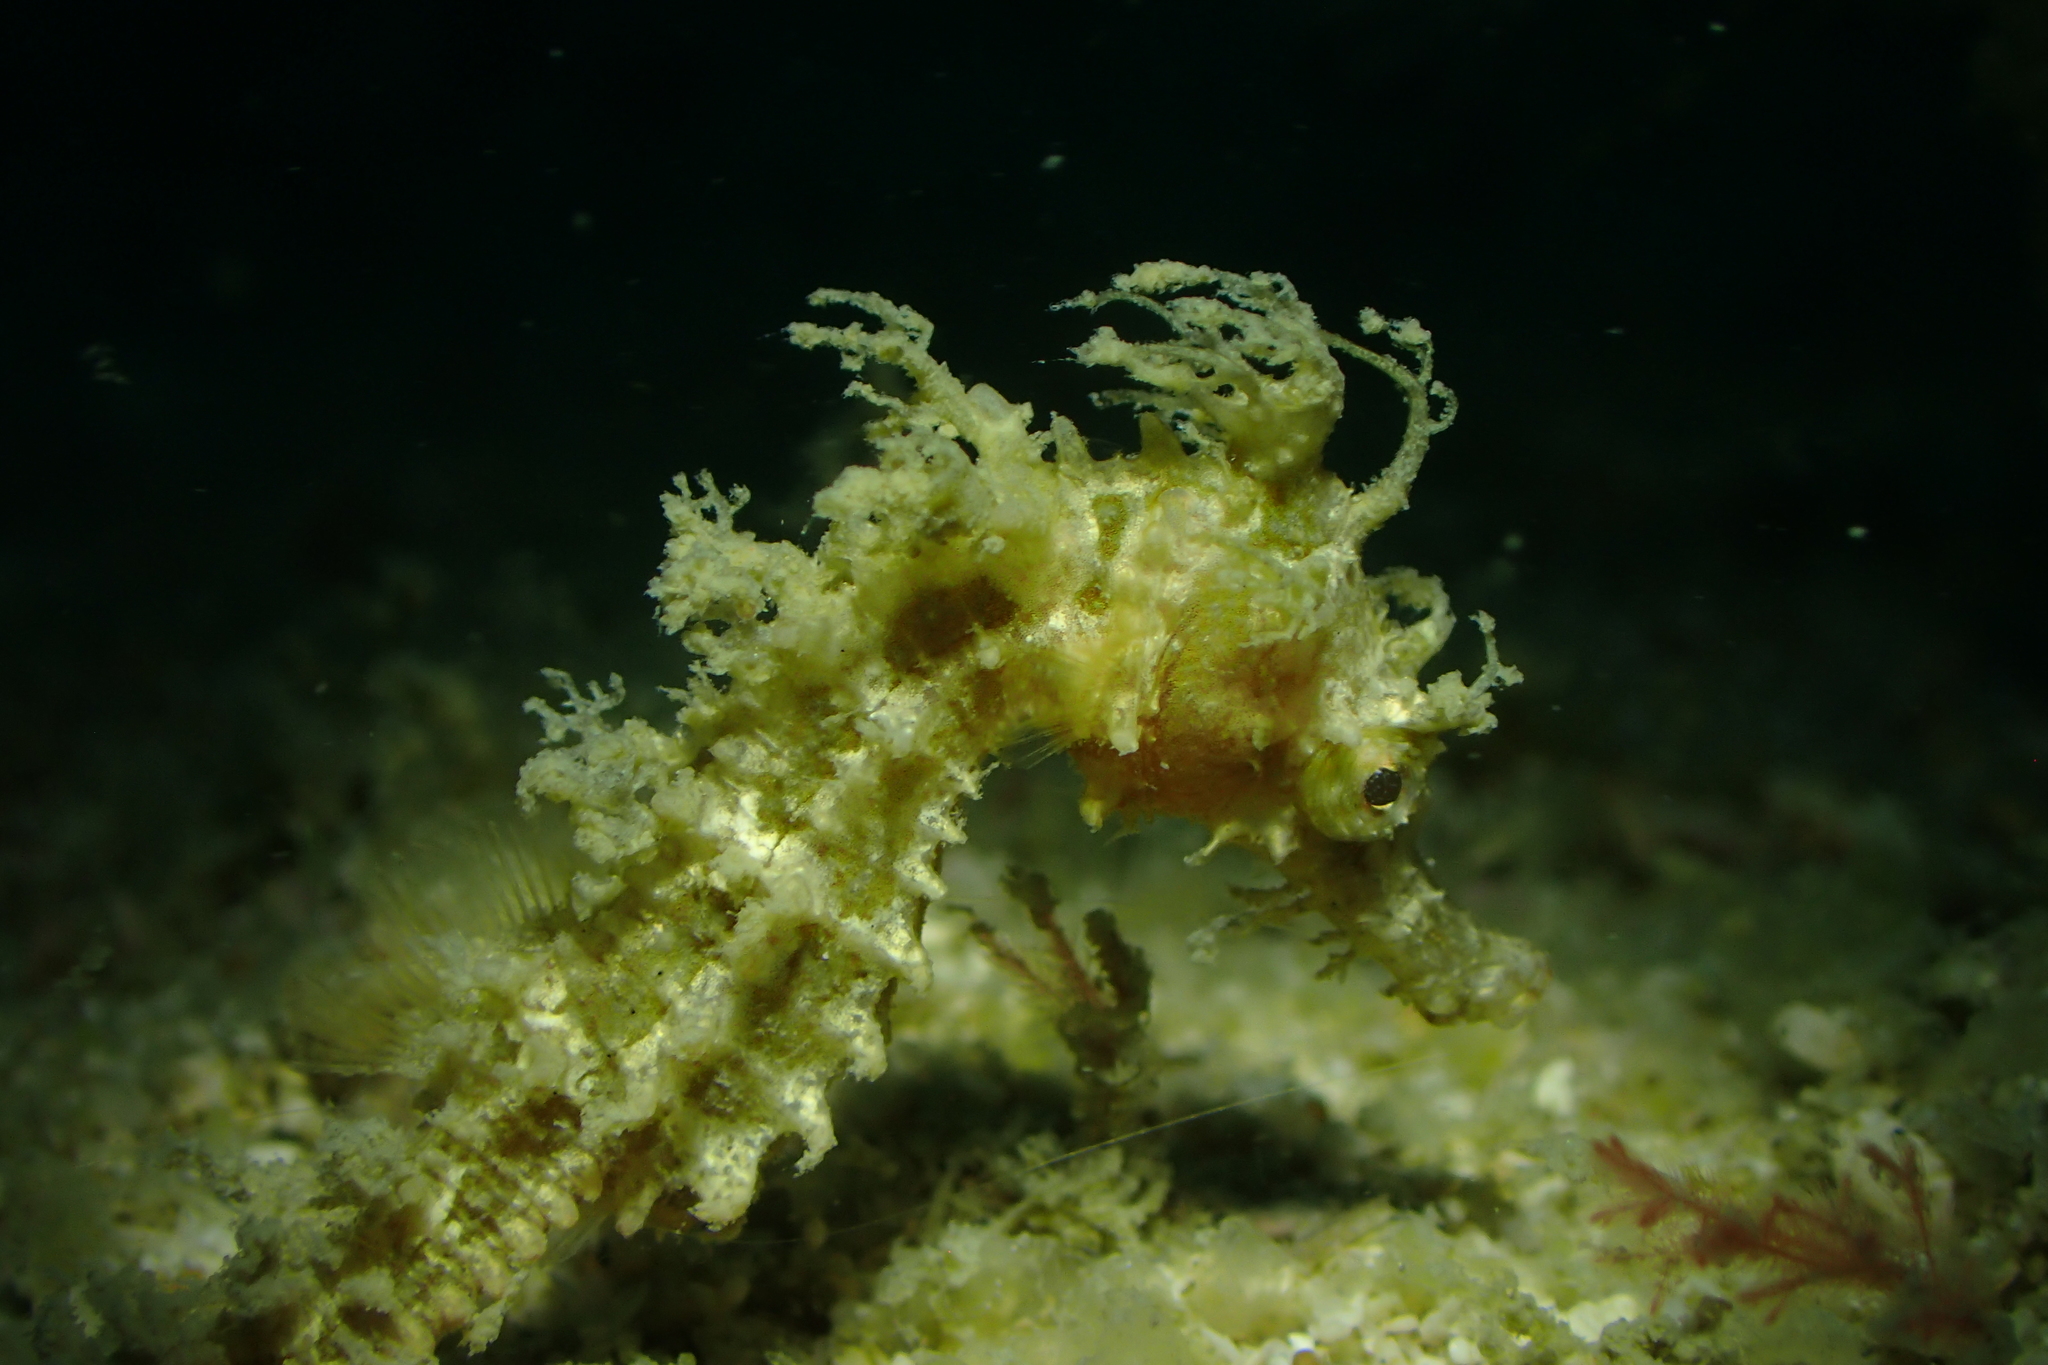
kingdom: Animalia
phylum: Chordata
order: Syngnathiformes
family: Syngnathidae
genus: Hippocampus
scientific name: Hippocampus spinosissimus
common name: Hedgehog seahorse
